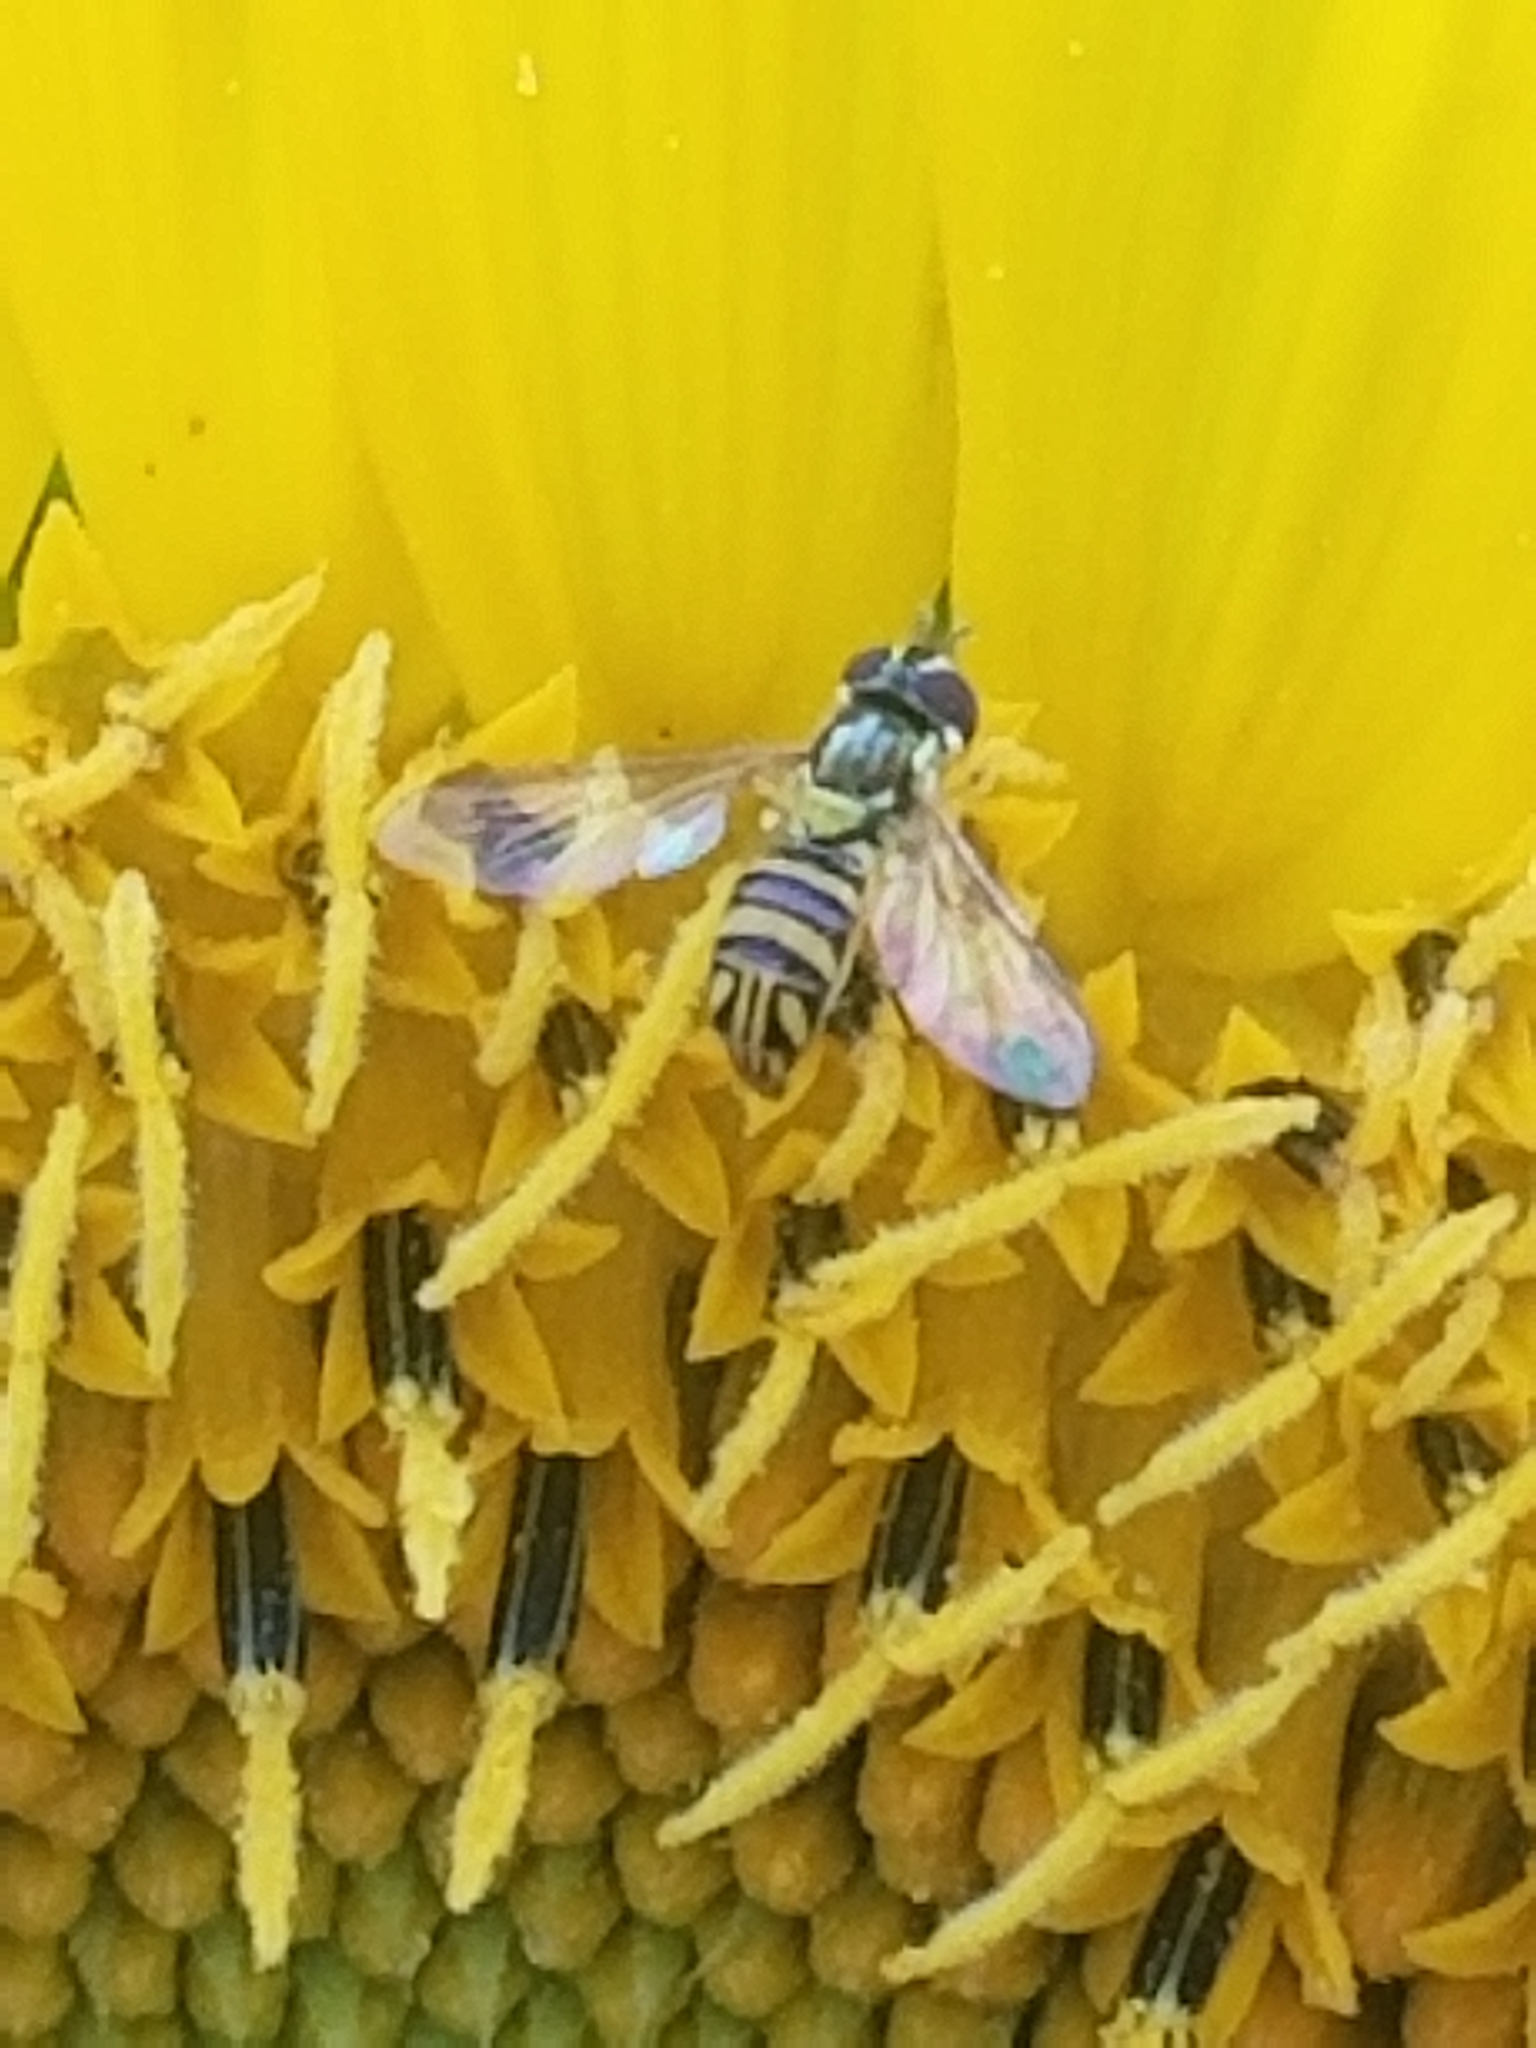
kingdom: Animalia
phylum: Arthropoda
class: Insecta
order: Diptera
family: Syrphidae
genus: Allograpta
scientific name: Allograpta obliqua
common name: Common oblique syrphid
